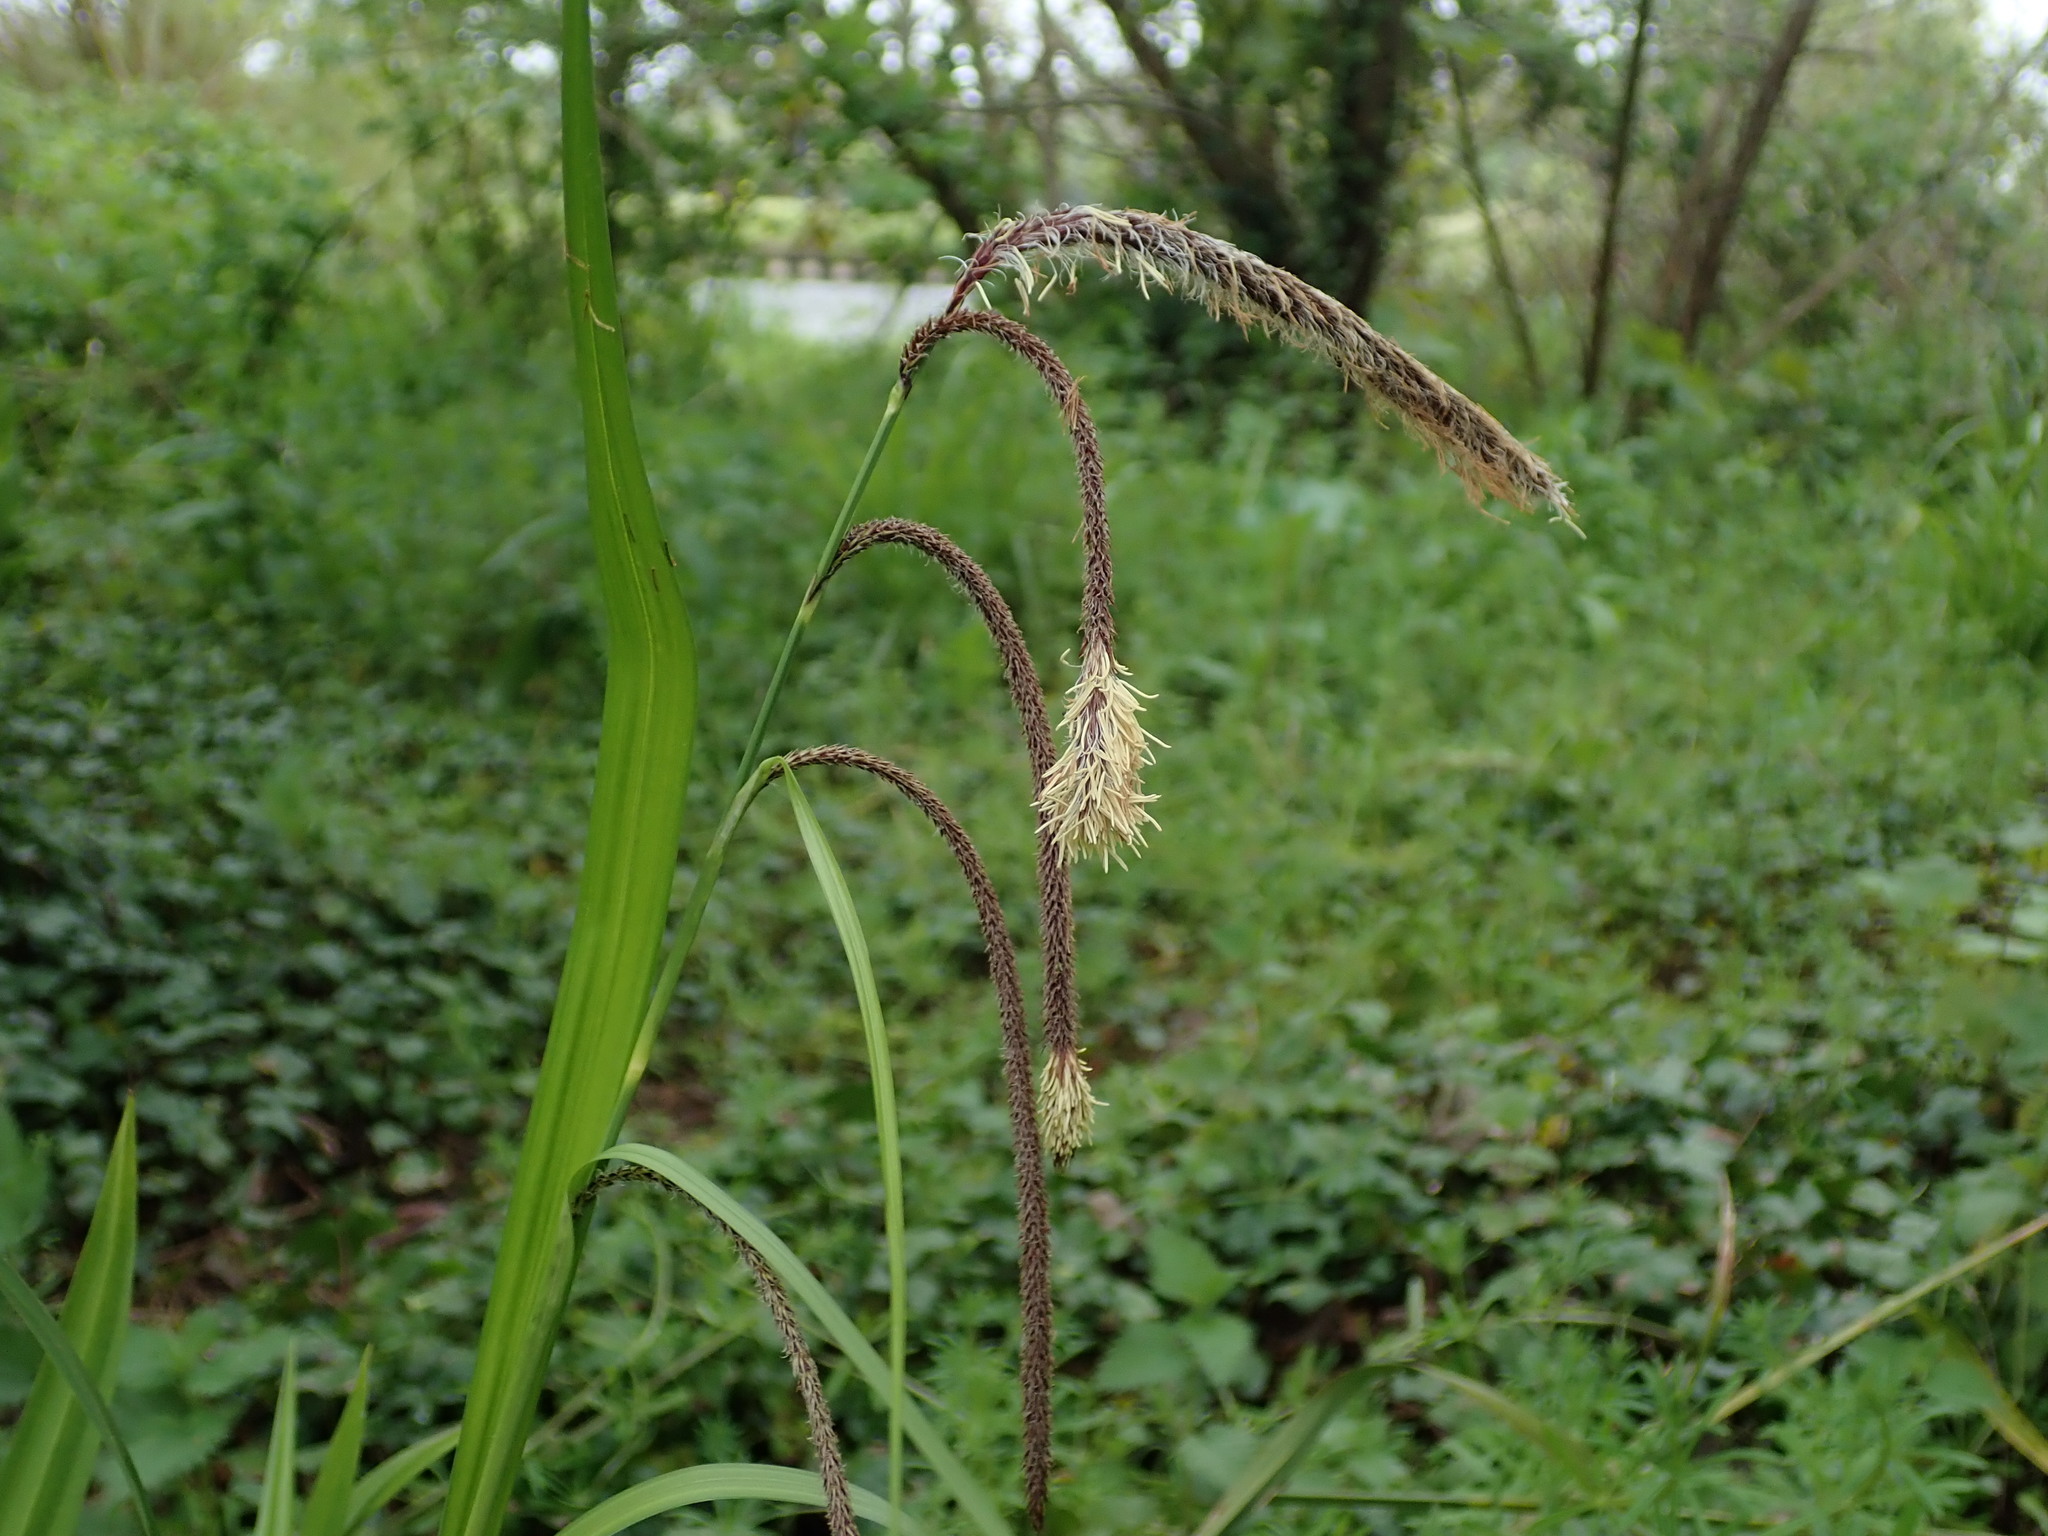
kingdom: Plantae
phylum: Tracheophyta
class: Liliopsida
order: Poales
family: Cyperaceae
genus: Carex
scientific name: Carex pendula
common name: Pendulous sedge
